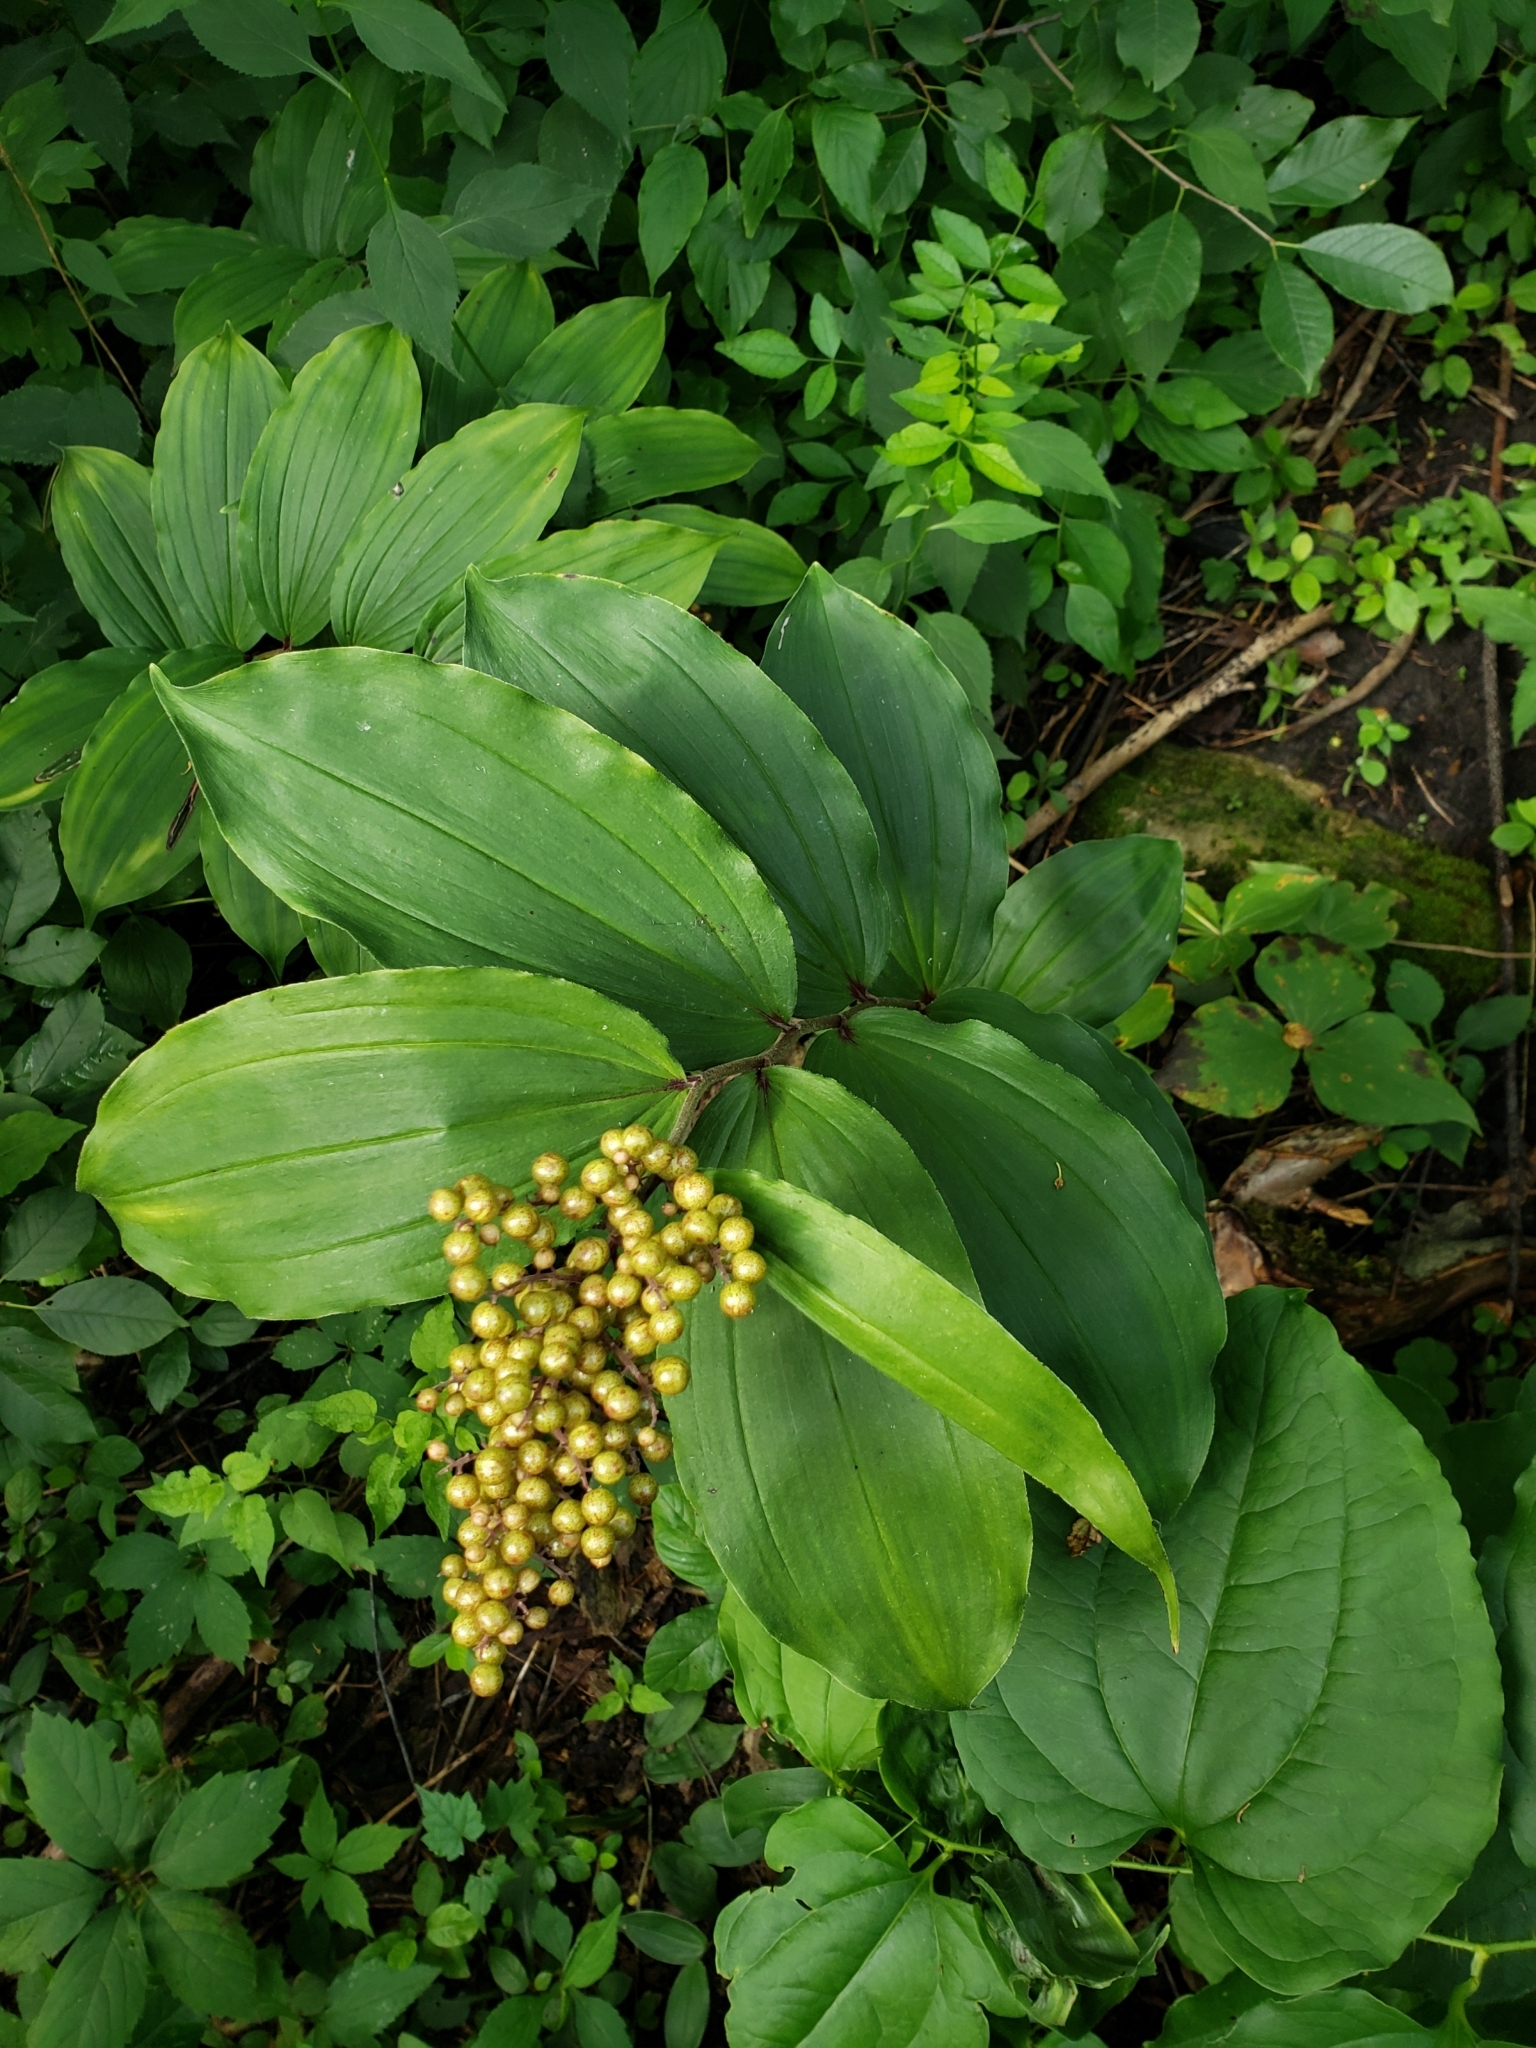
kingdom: Plantae
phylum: Tracheophyta
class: Liliopsida
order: Asparagales
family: Asparagaceae
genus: Maianthemum
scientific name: Maianthemum racemosum
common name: False spikenard
